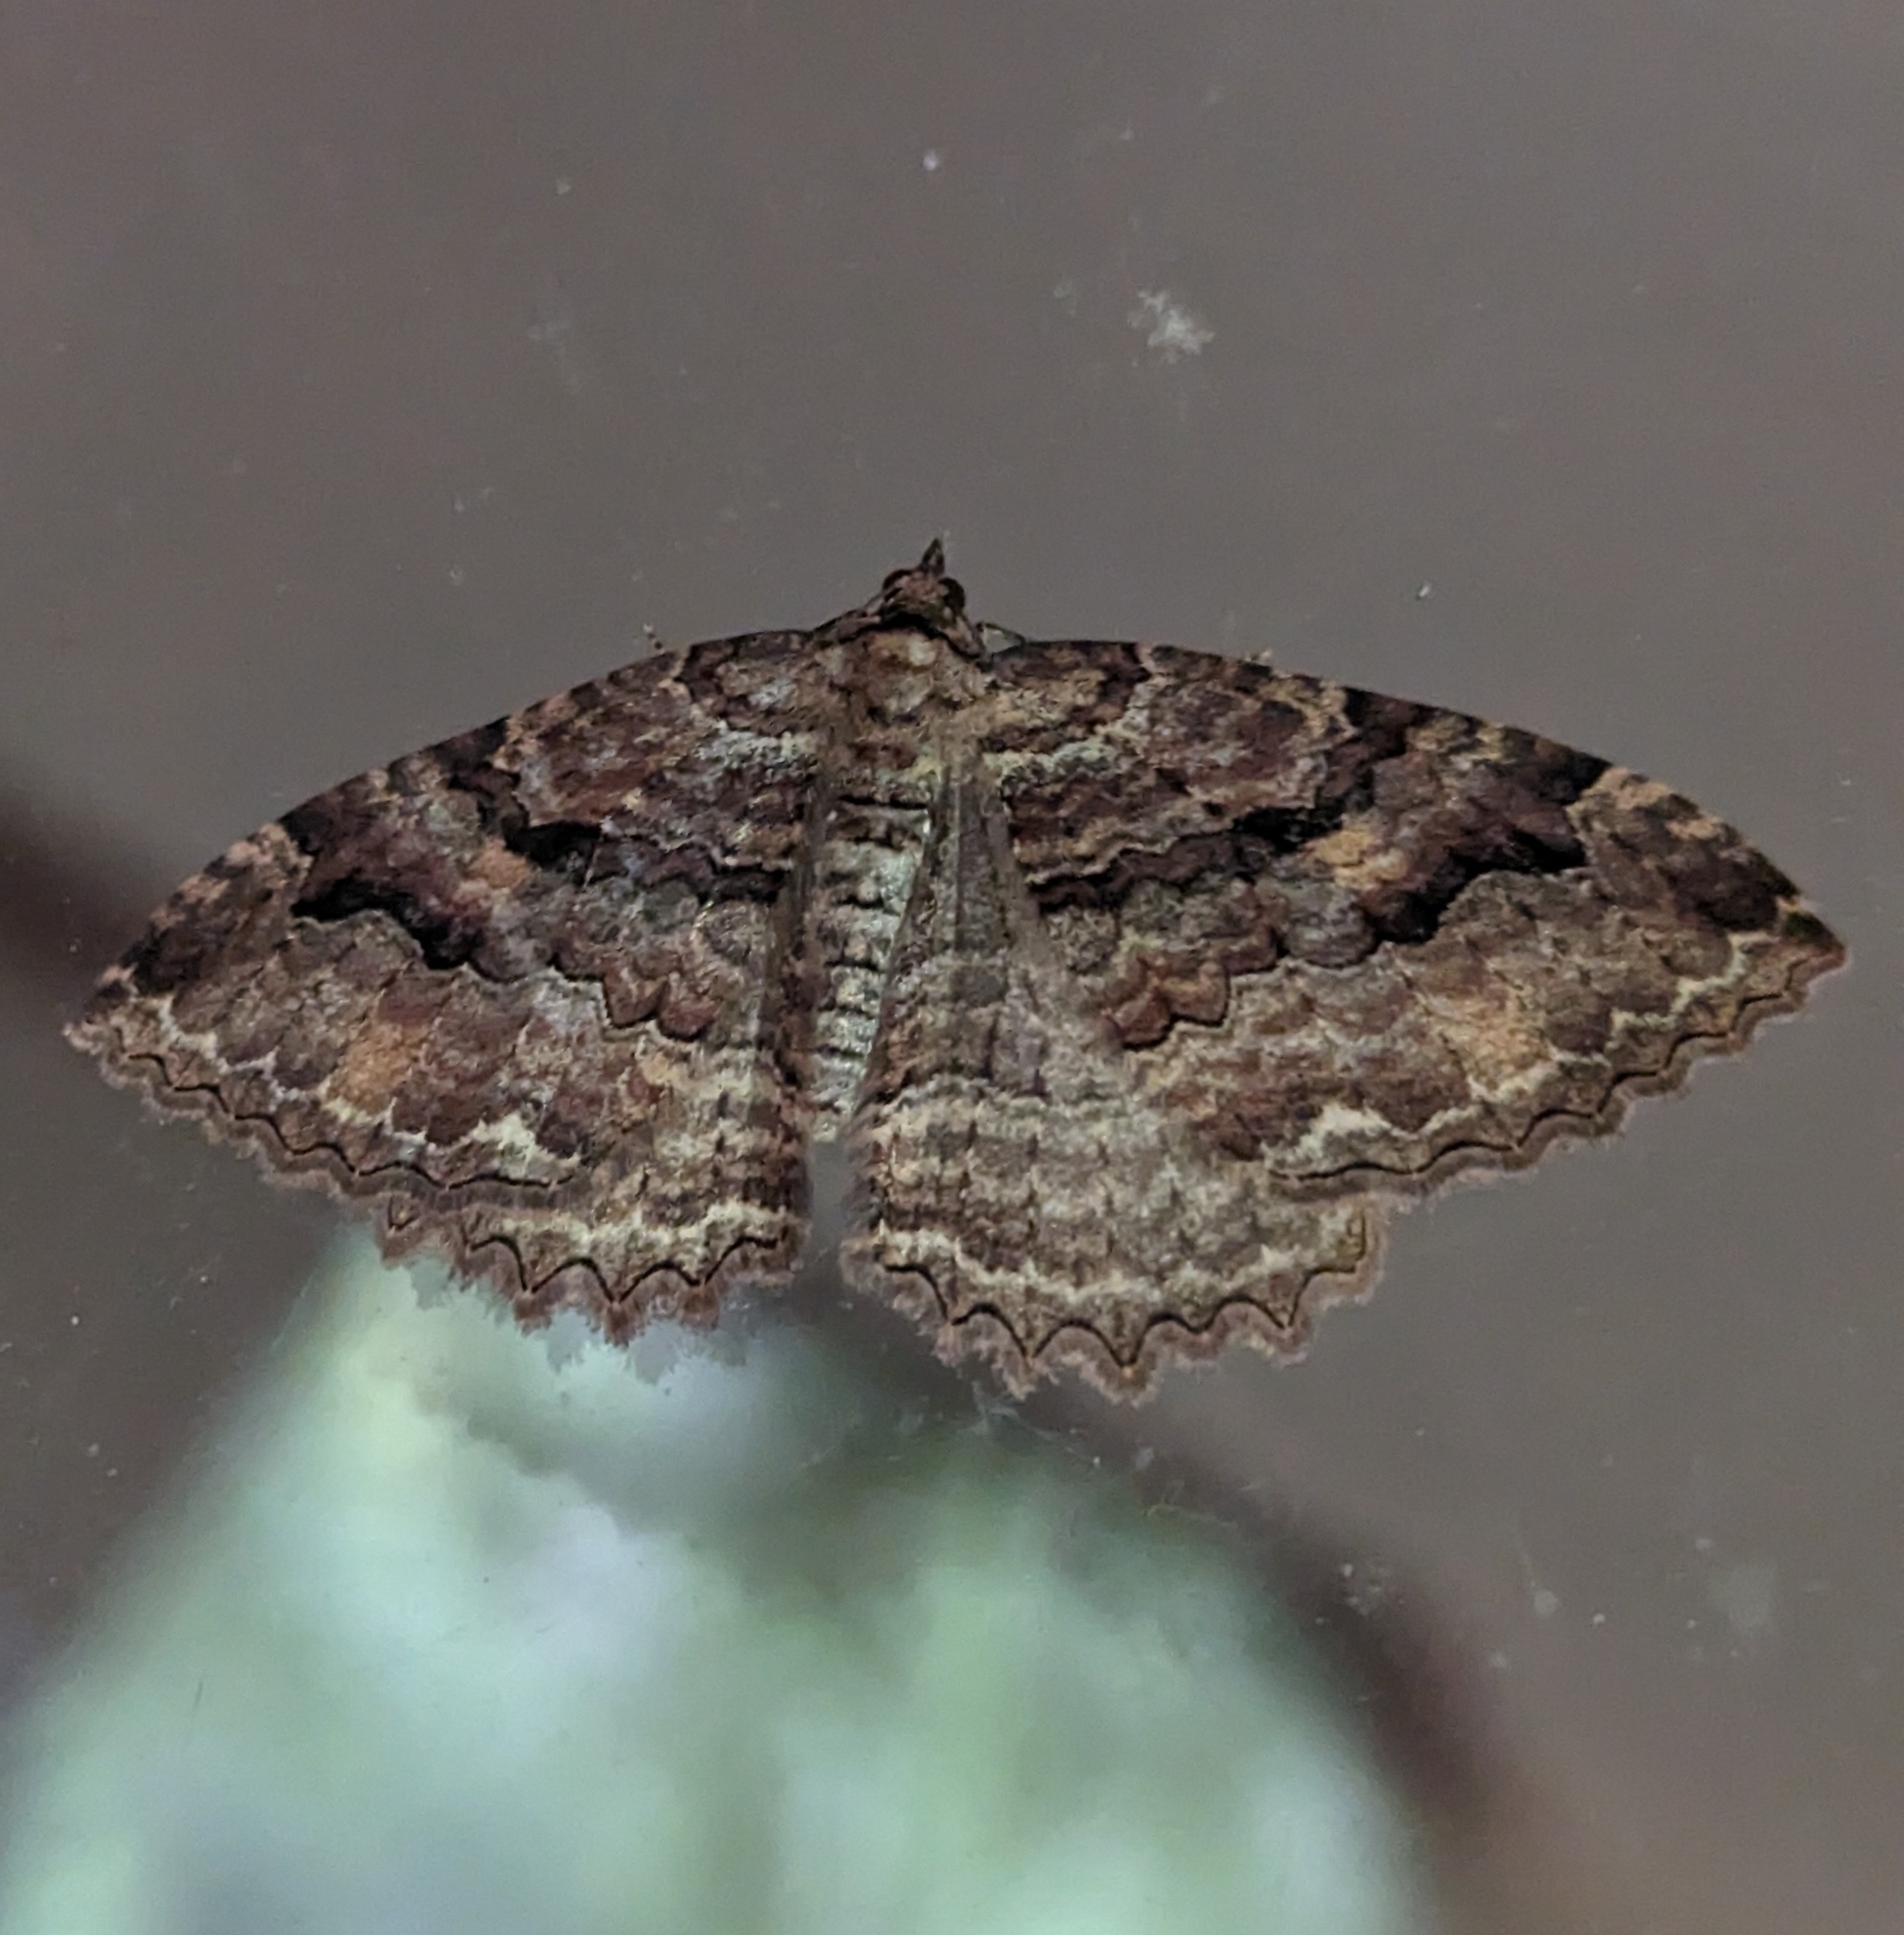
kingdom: Animalia
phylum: Arthropoda
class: Insecta
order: Lepidoptera
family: Geometridae
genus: Triphosa
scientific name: Triphosa haesitata
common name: Tissue moth
